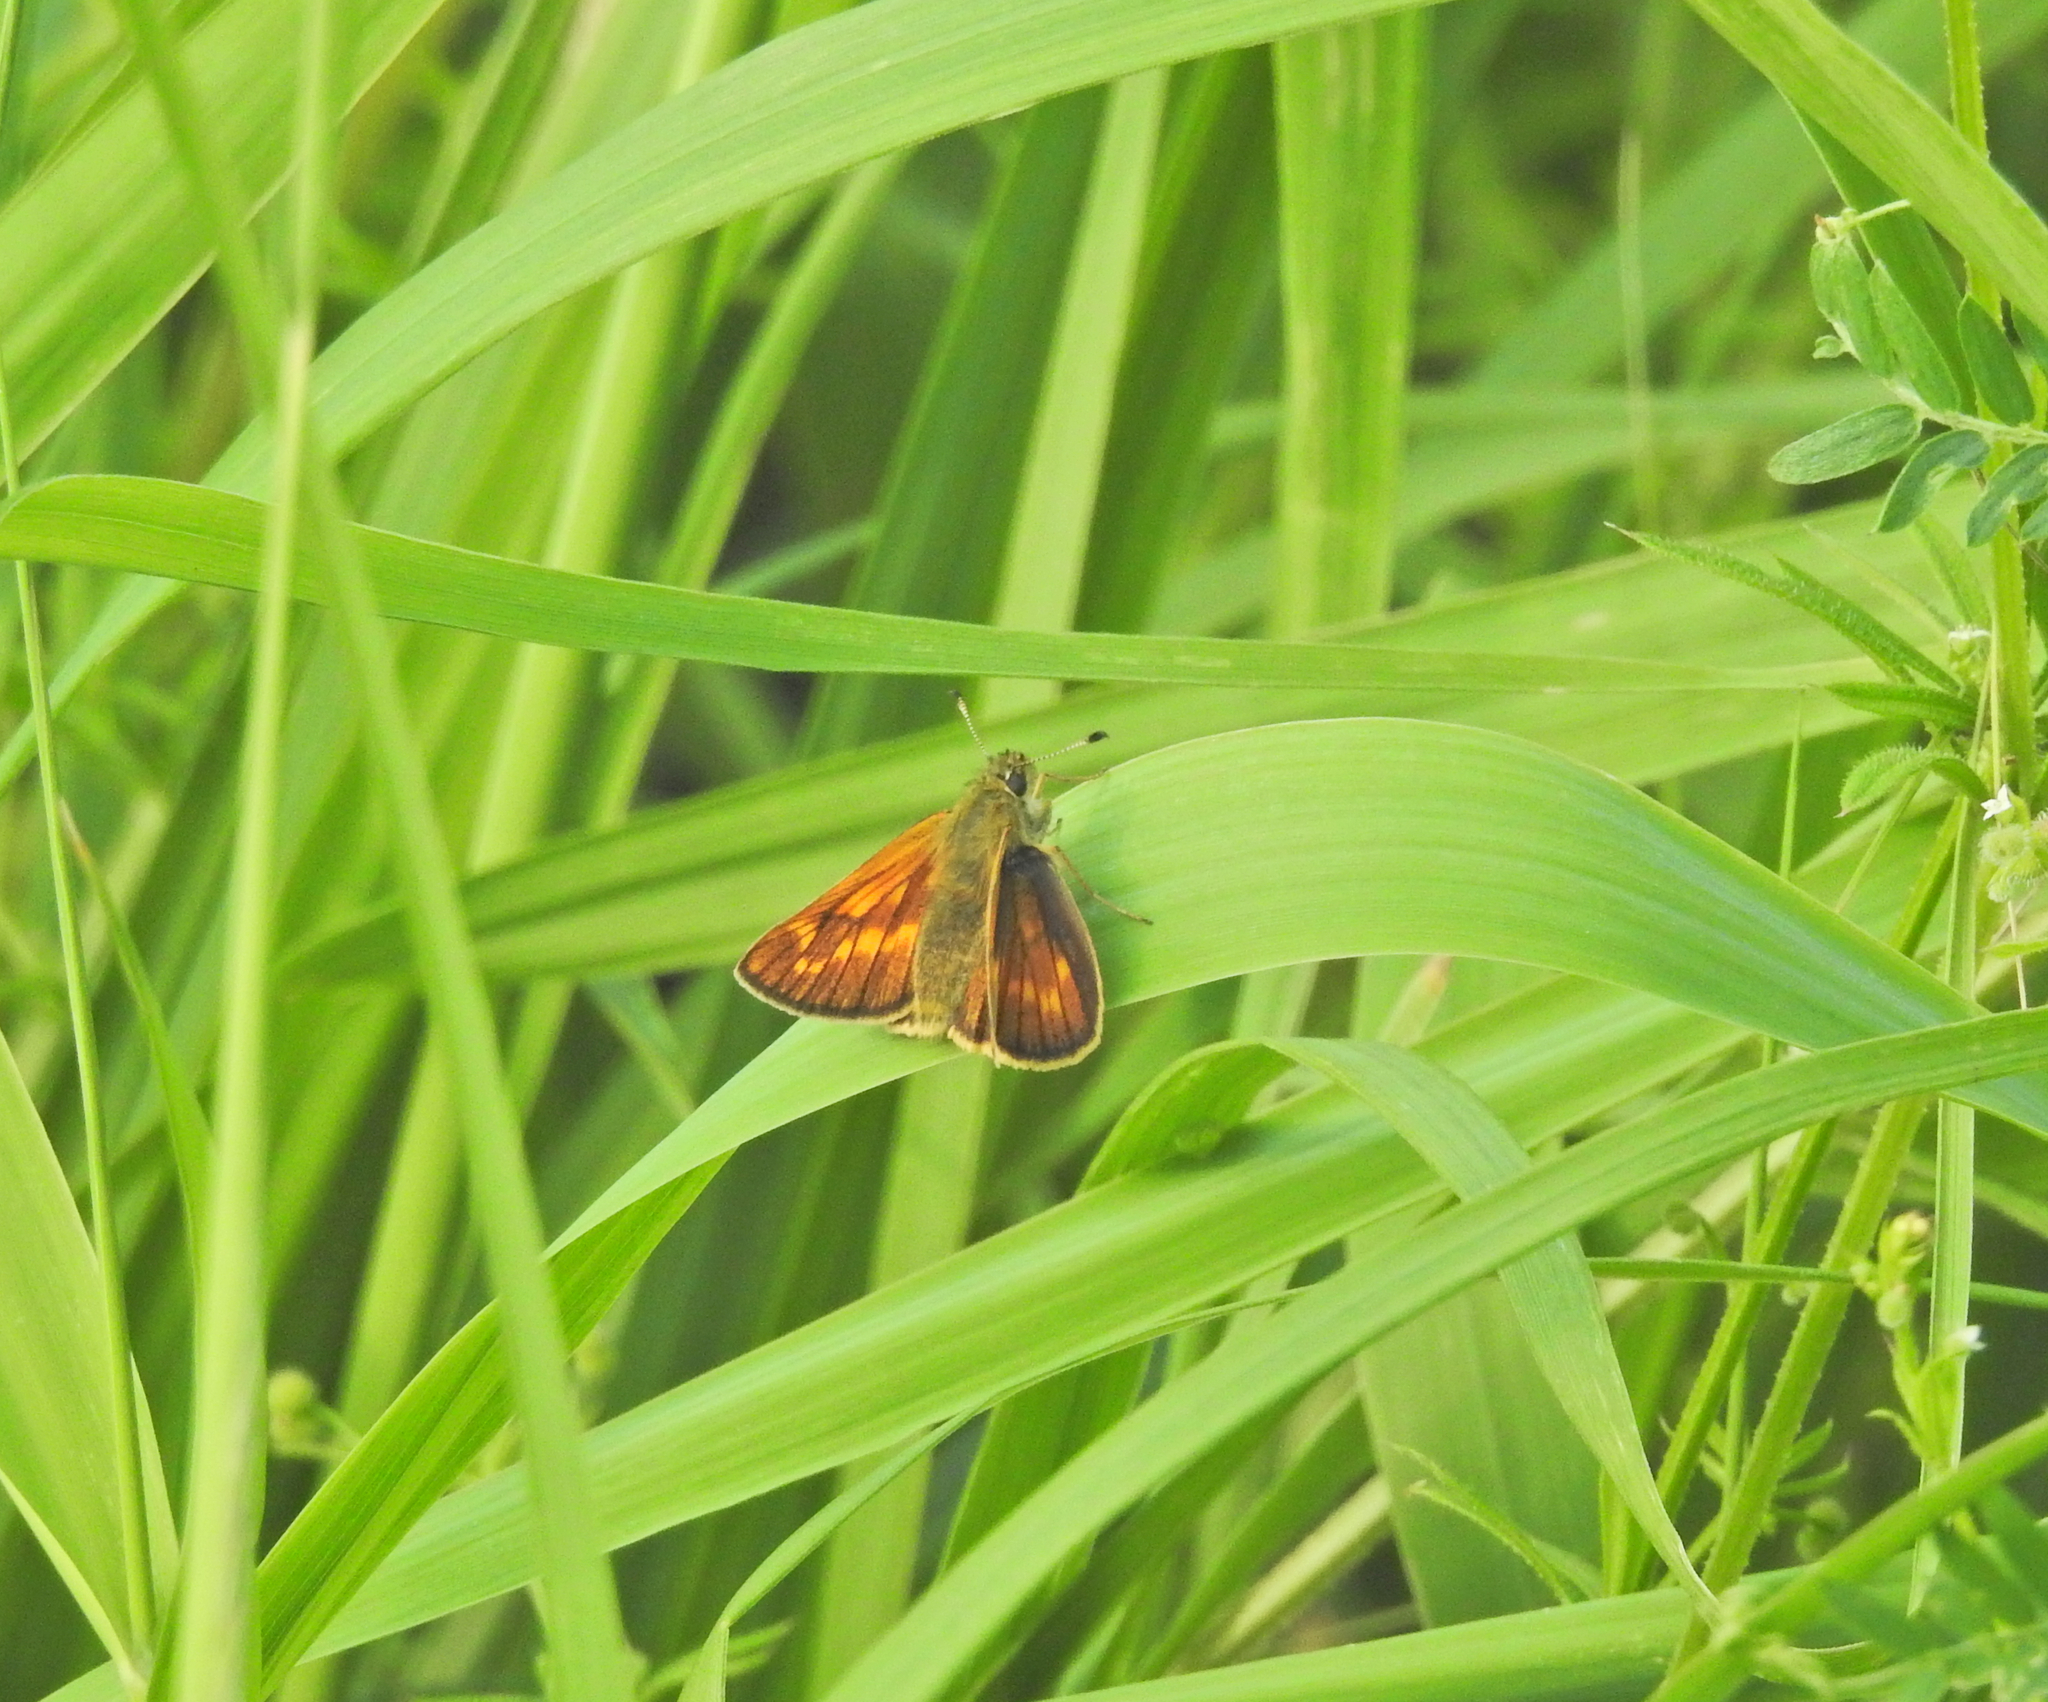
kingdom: Animalia
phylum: Arthropoda
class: Insecta
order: Lepidoptera
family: Hesperiidae
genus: Ochlodes
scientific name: Ochlodes venata
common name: Large skipper
